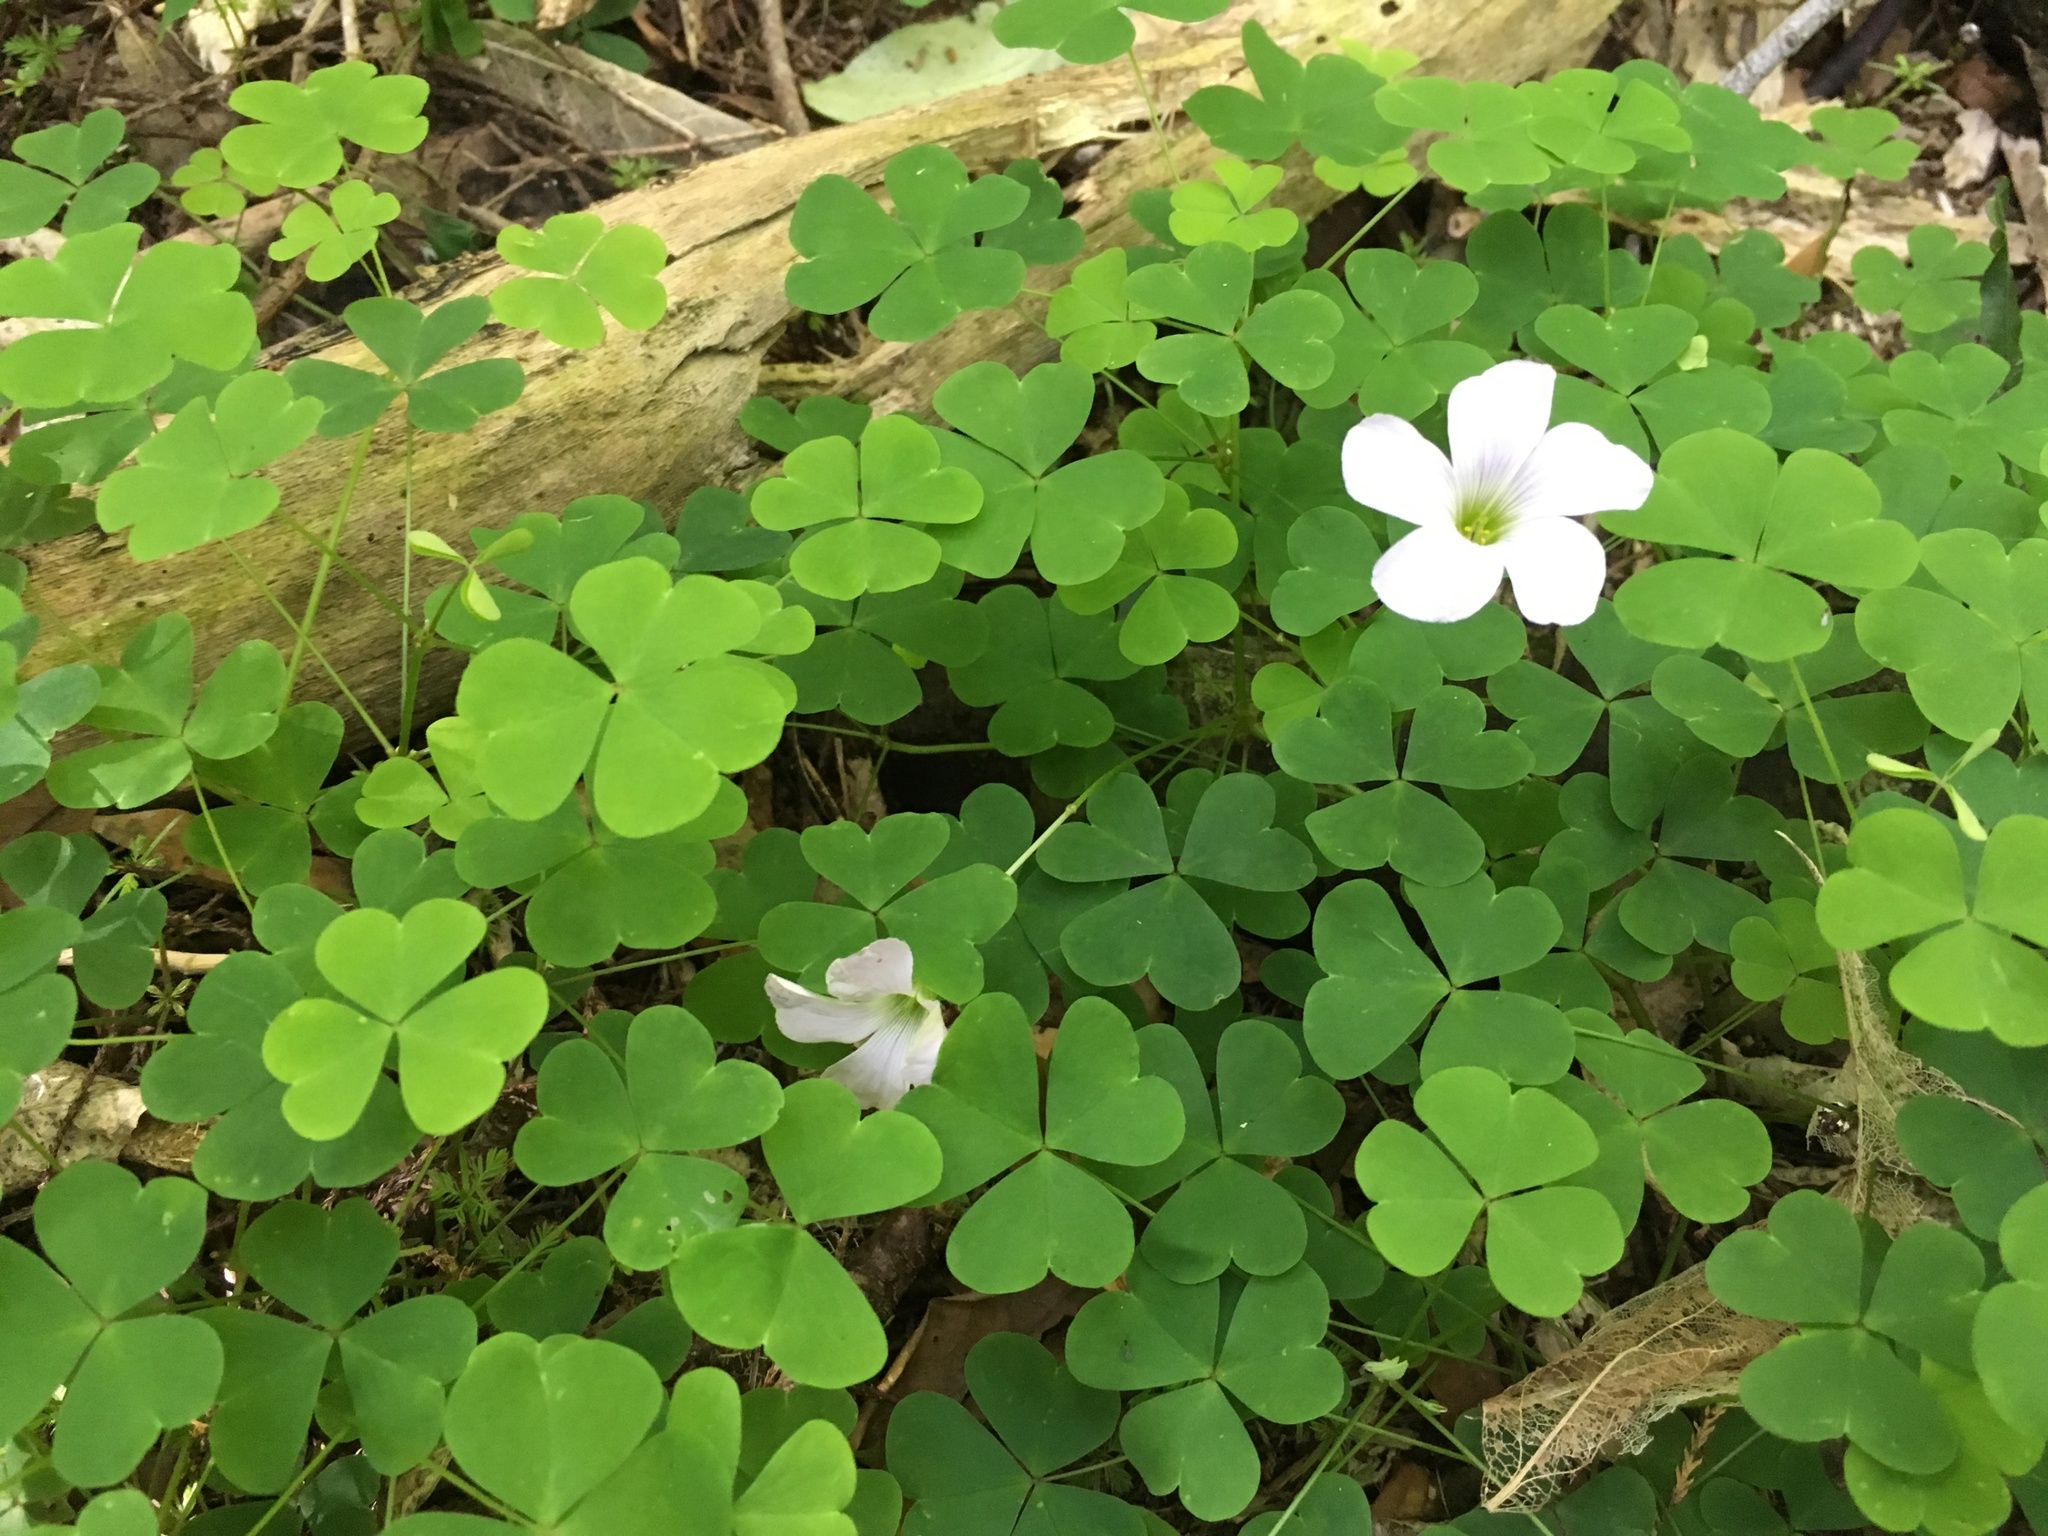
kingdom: Plantae
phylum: Tracheophyta
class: Magnoliopsida
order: Oxalidales
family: Oxalidaceae
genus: Oxalis
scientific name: Oxalis incarnata
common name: Pale pink-sorrel
